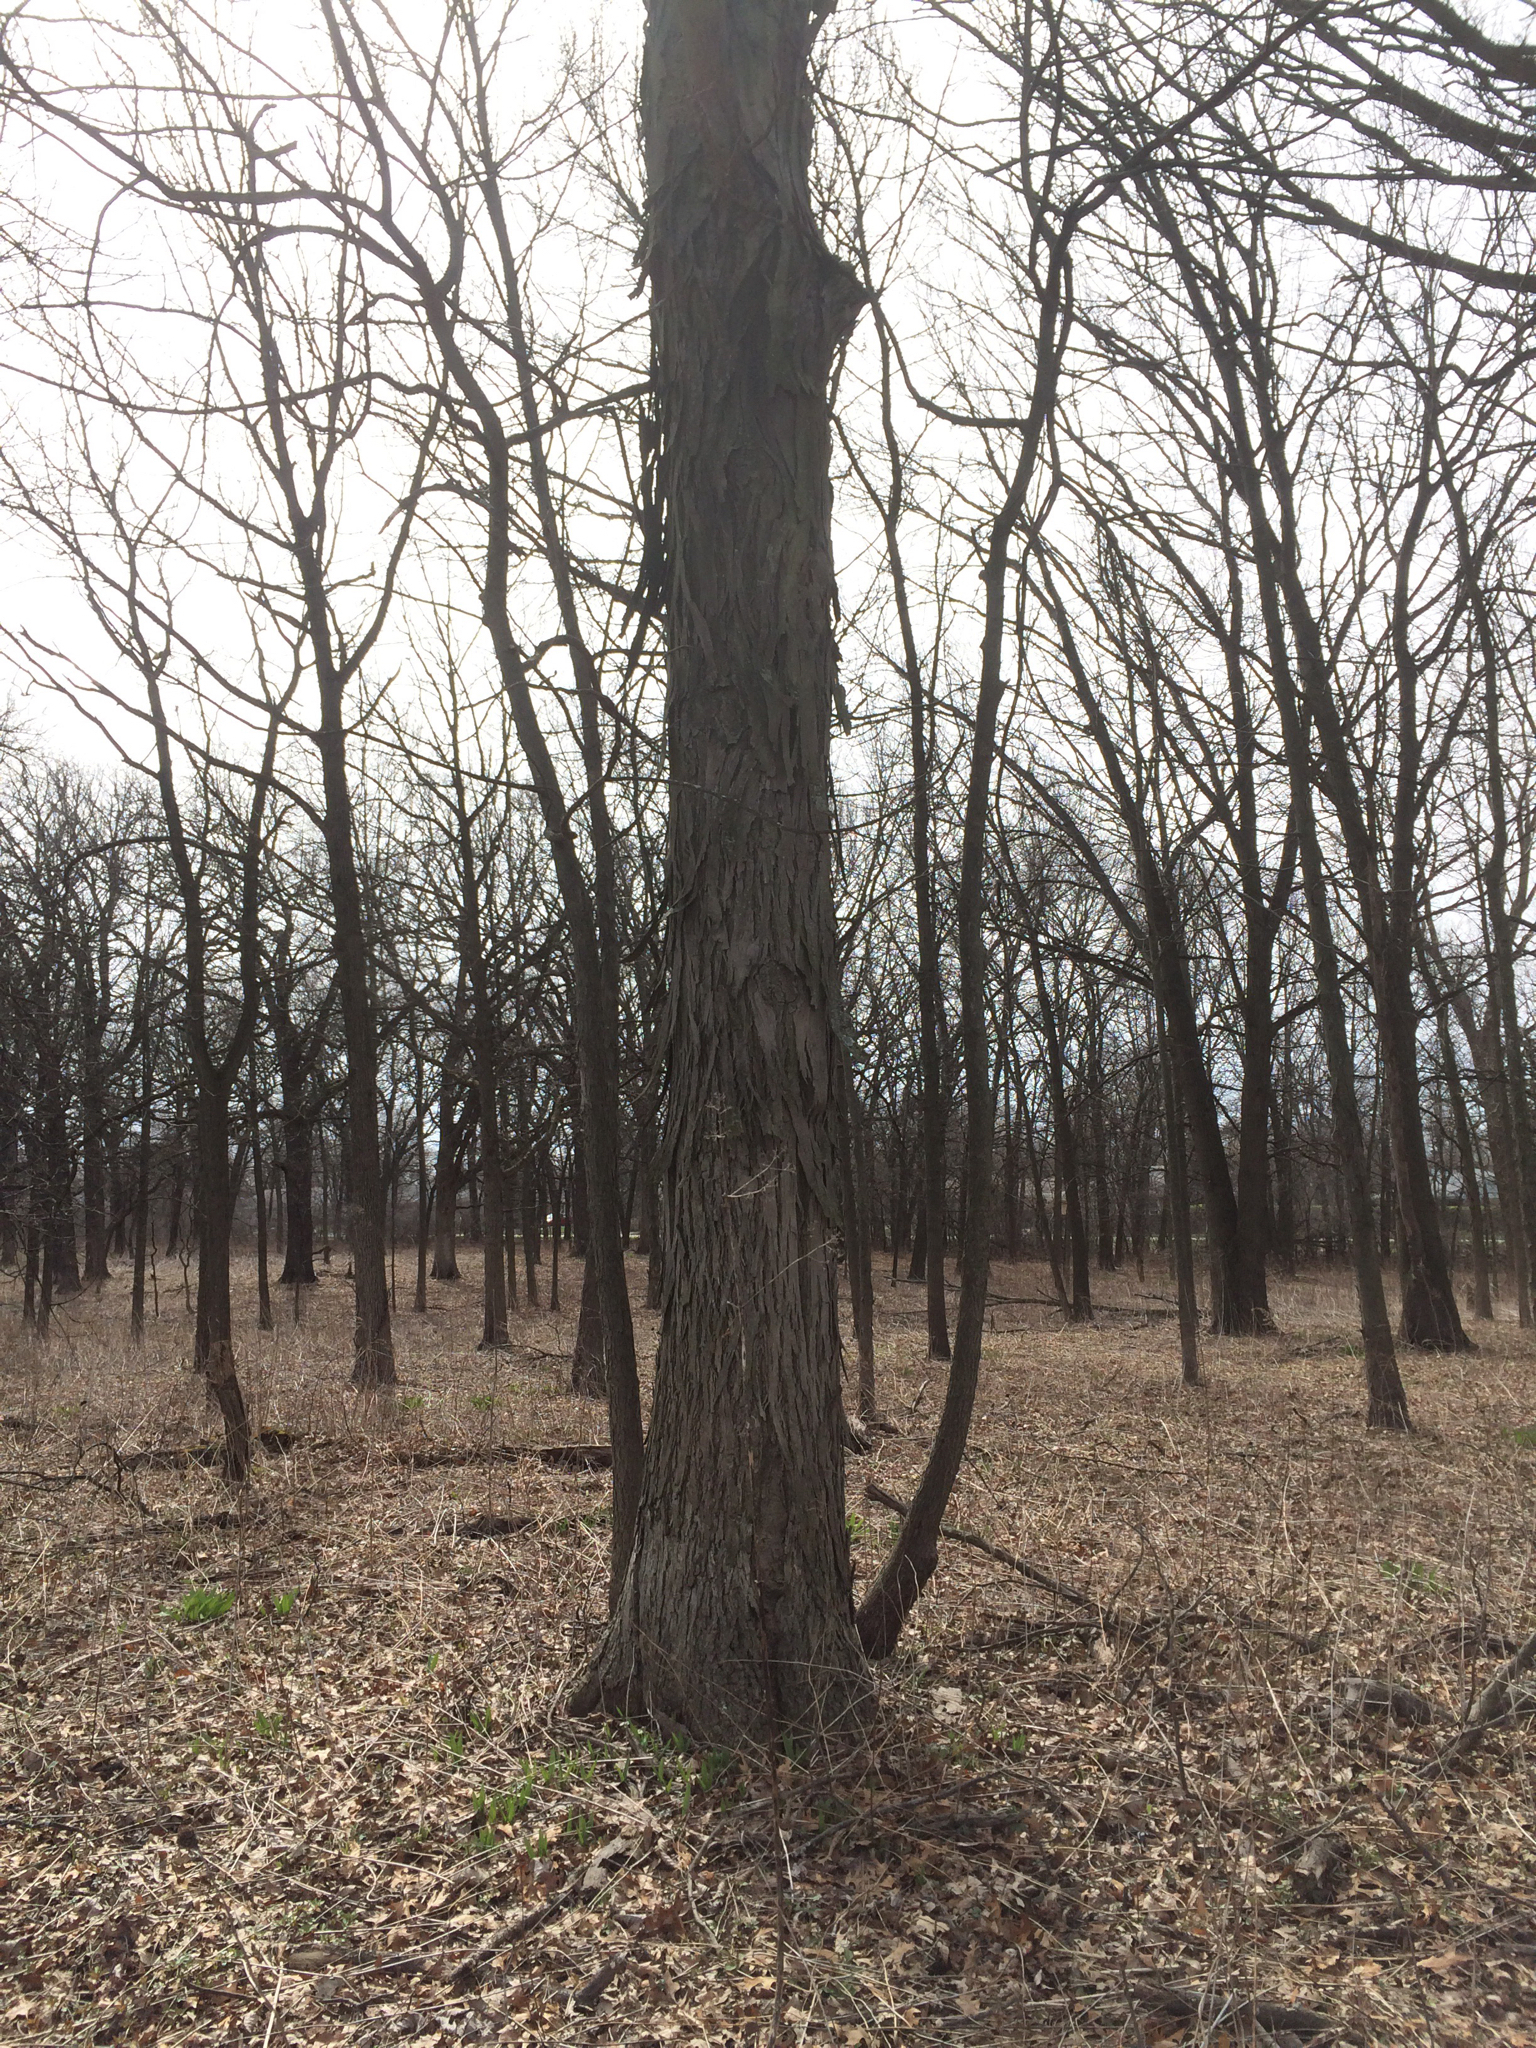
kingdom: Plantae
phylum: Tracheophyta
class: Magnoliopsida
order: Fagales
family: Juglandaceae
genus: Carya
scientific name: Carya ovata
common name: Shagbark hickory
